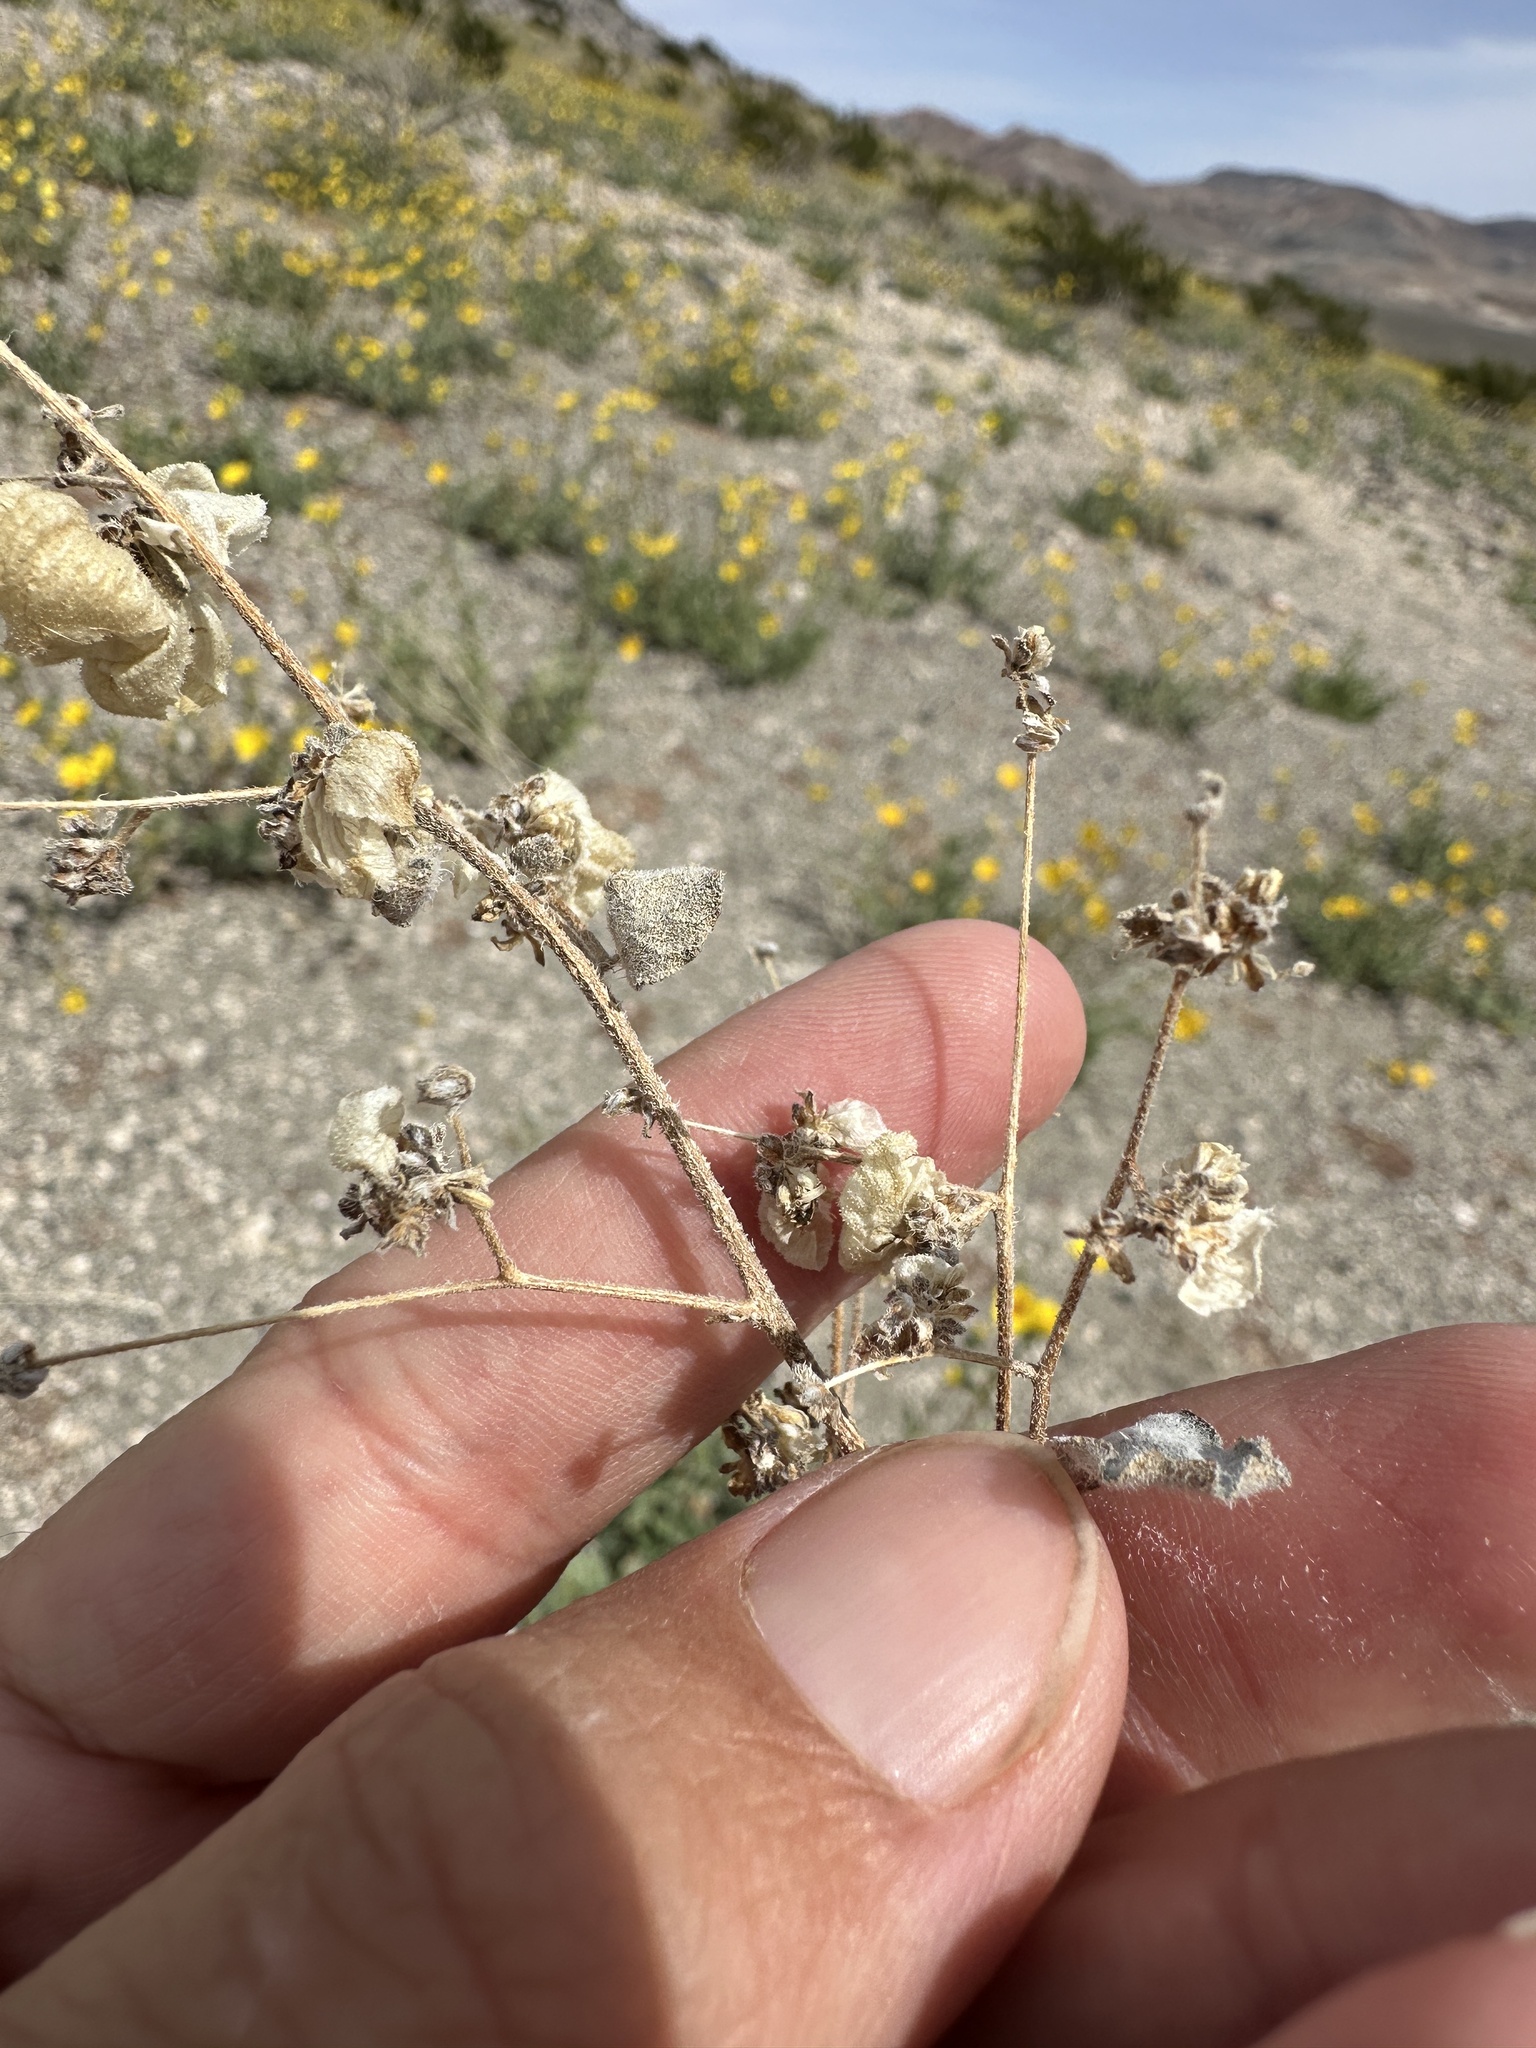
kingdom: Plantae
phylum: Tracheophyta
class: Magnoliopsida
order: Asterales
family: Asteraceae
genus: Dicoria
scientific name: Dicoria canescens
